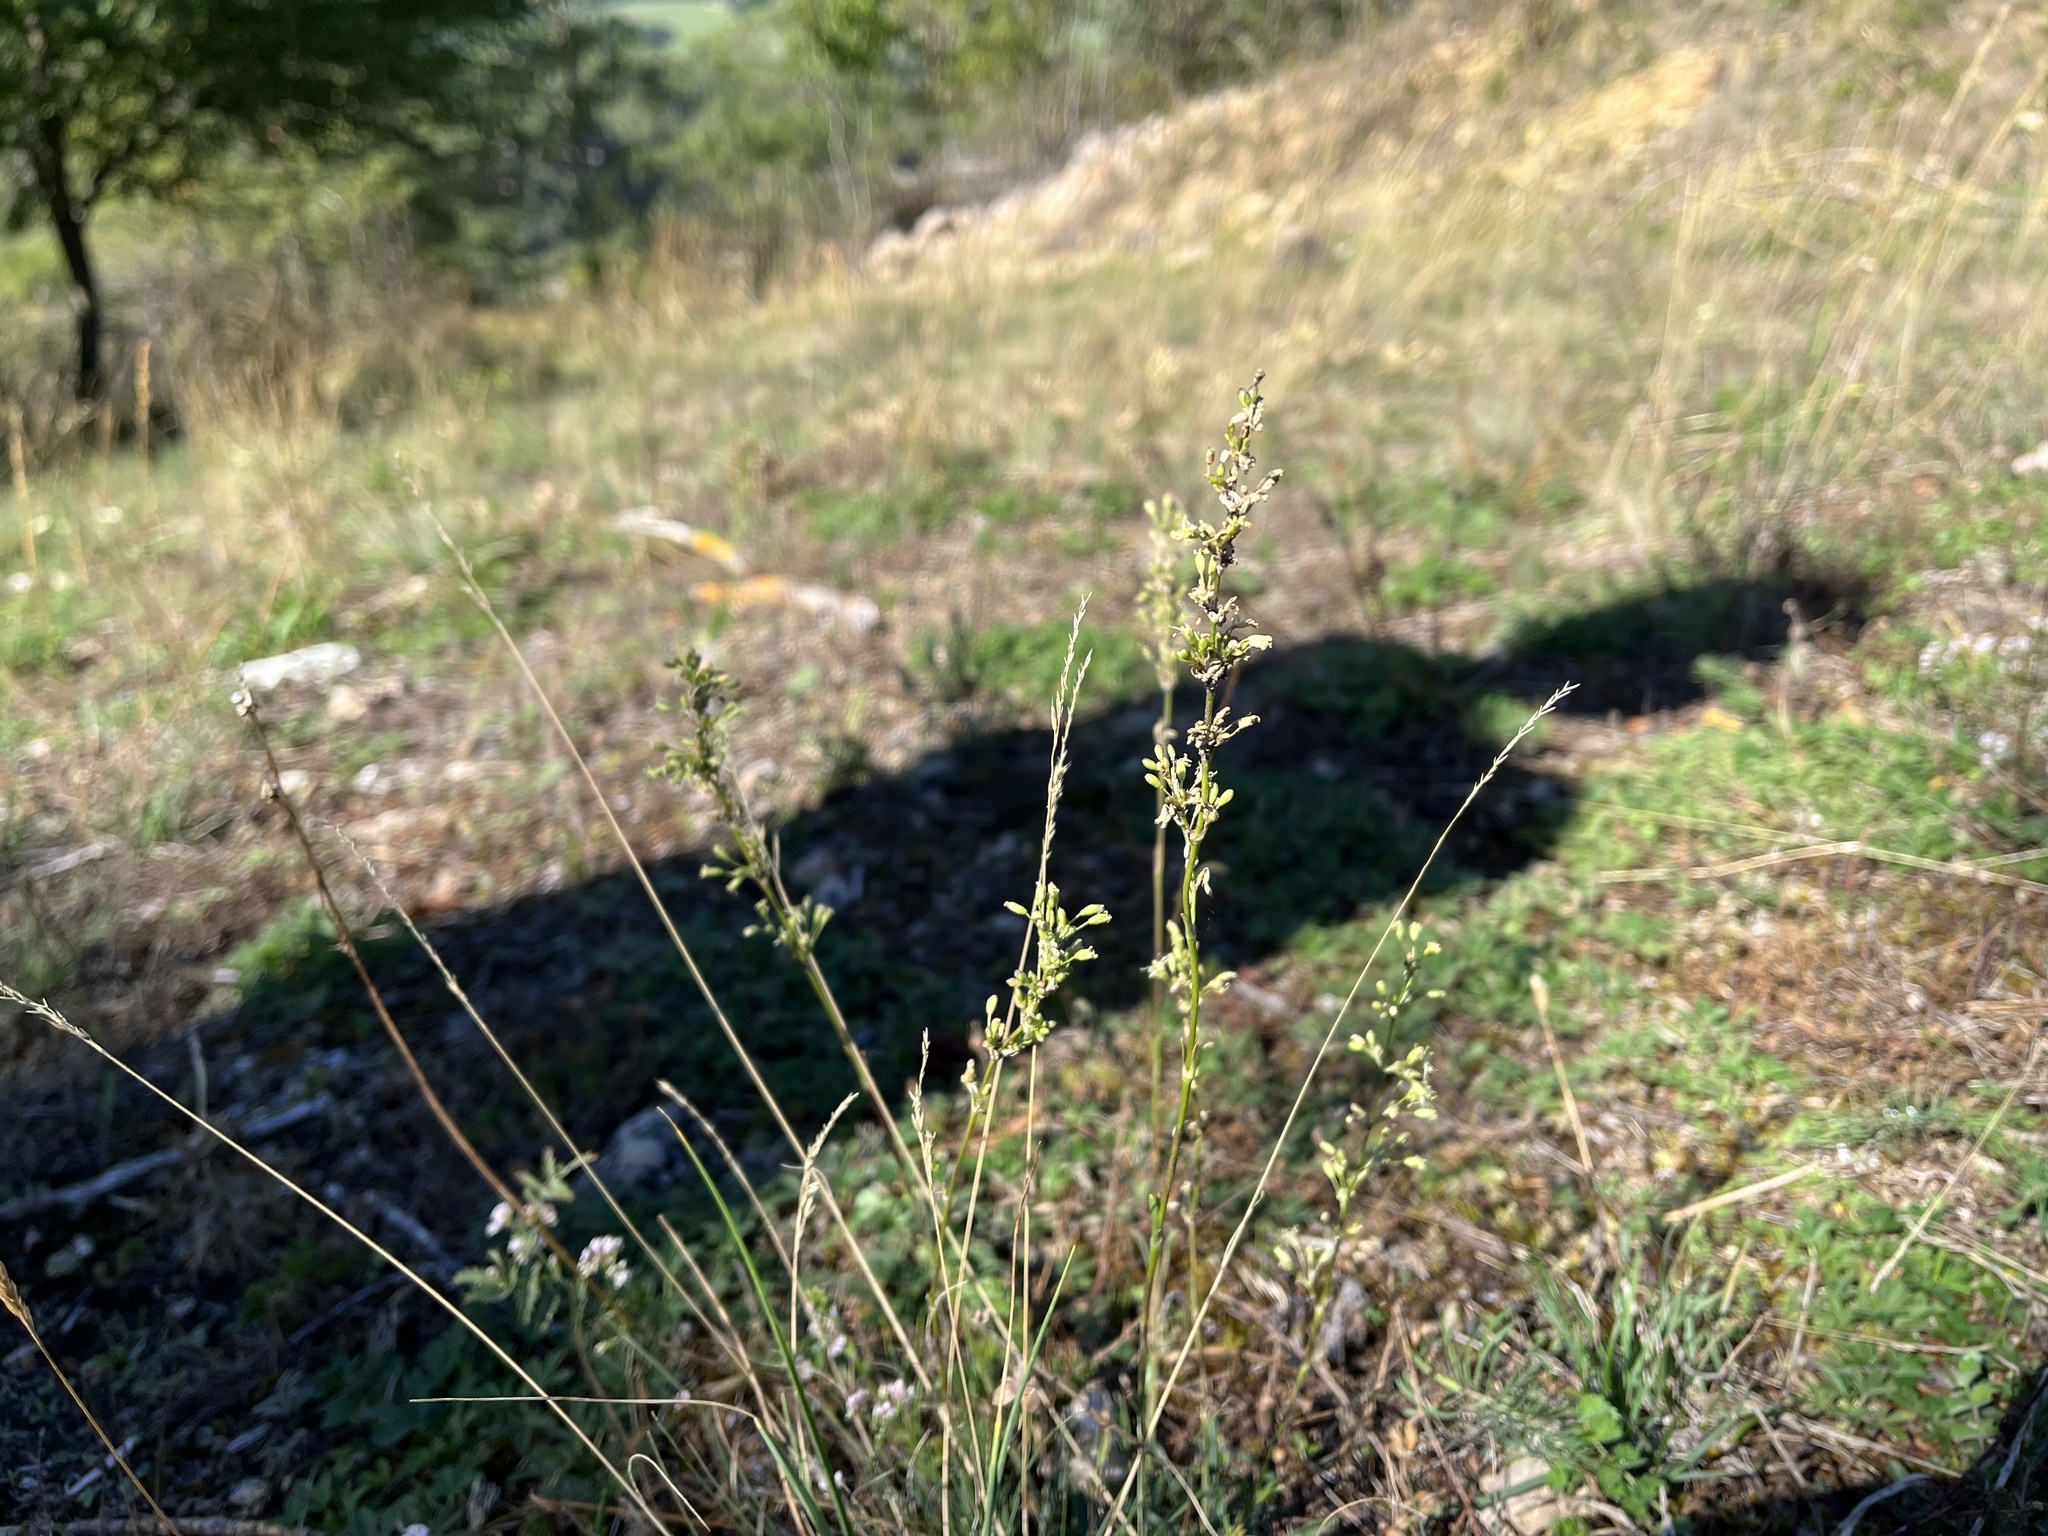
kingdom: Plantae
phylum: Tracheophyta
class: Magnoliopsida
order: Caryophyllales
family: Caryophyllaceae
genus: Silene
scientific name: Silene otites
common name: Spanish catchfly
